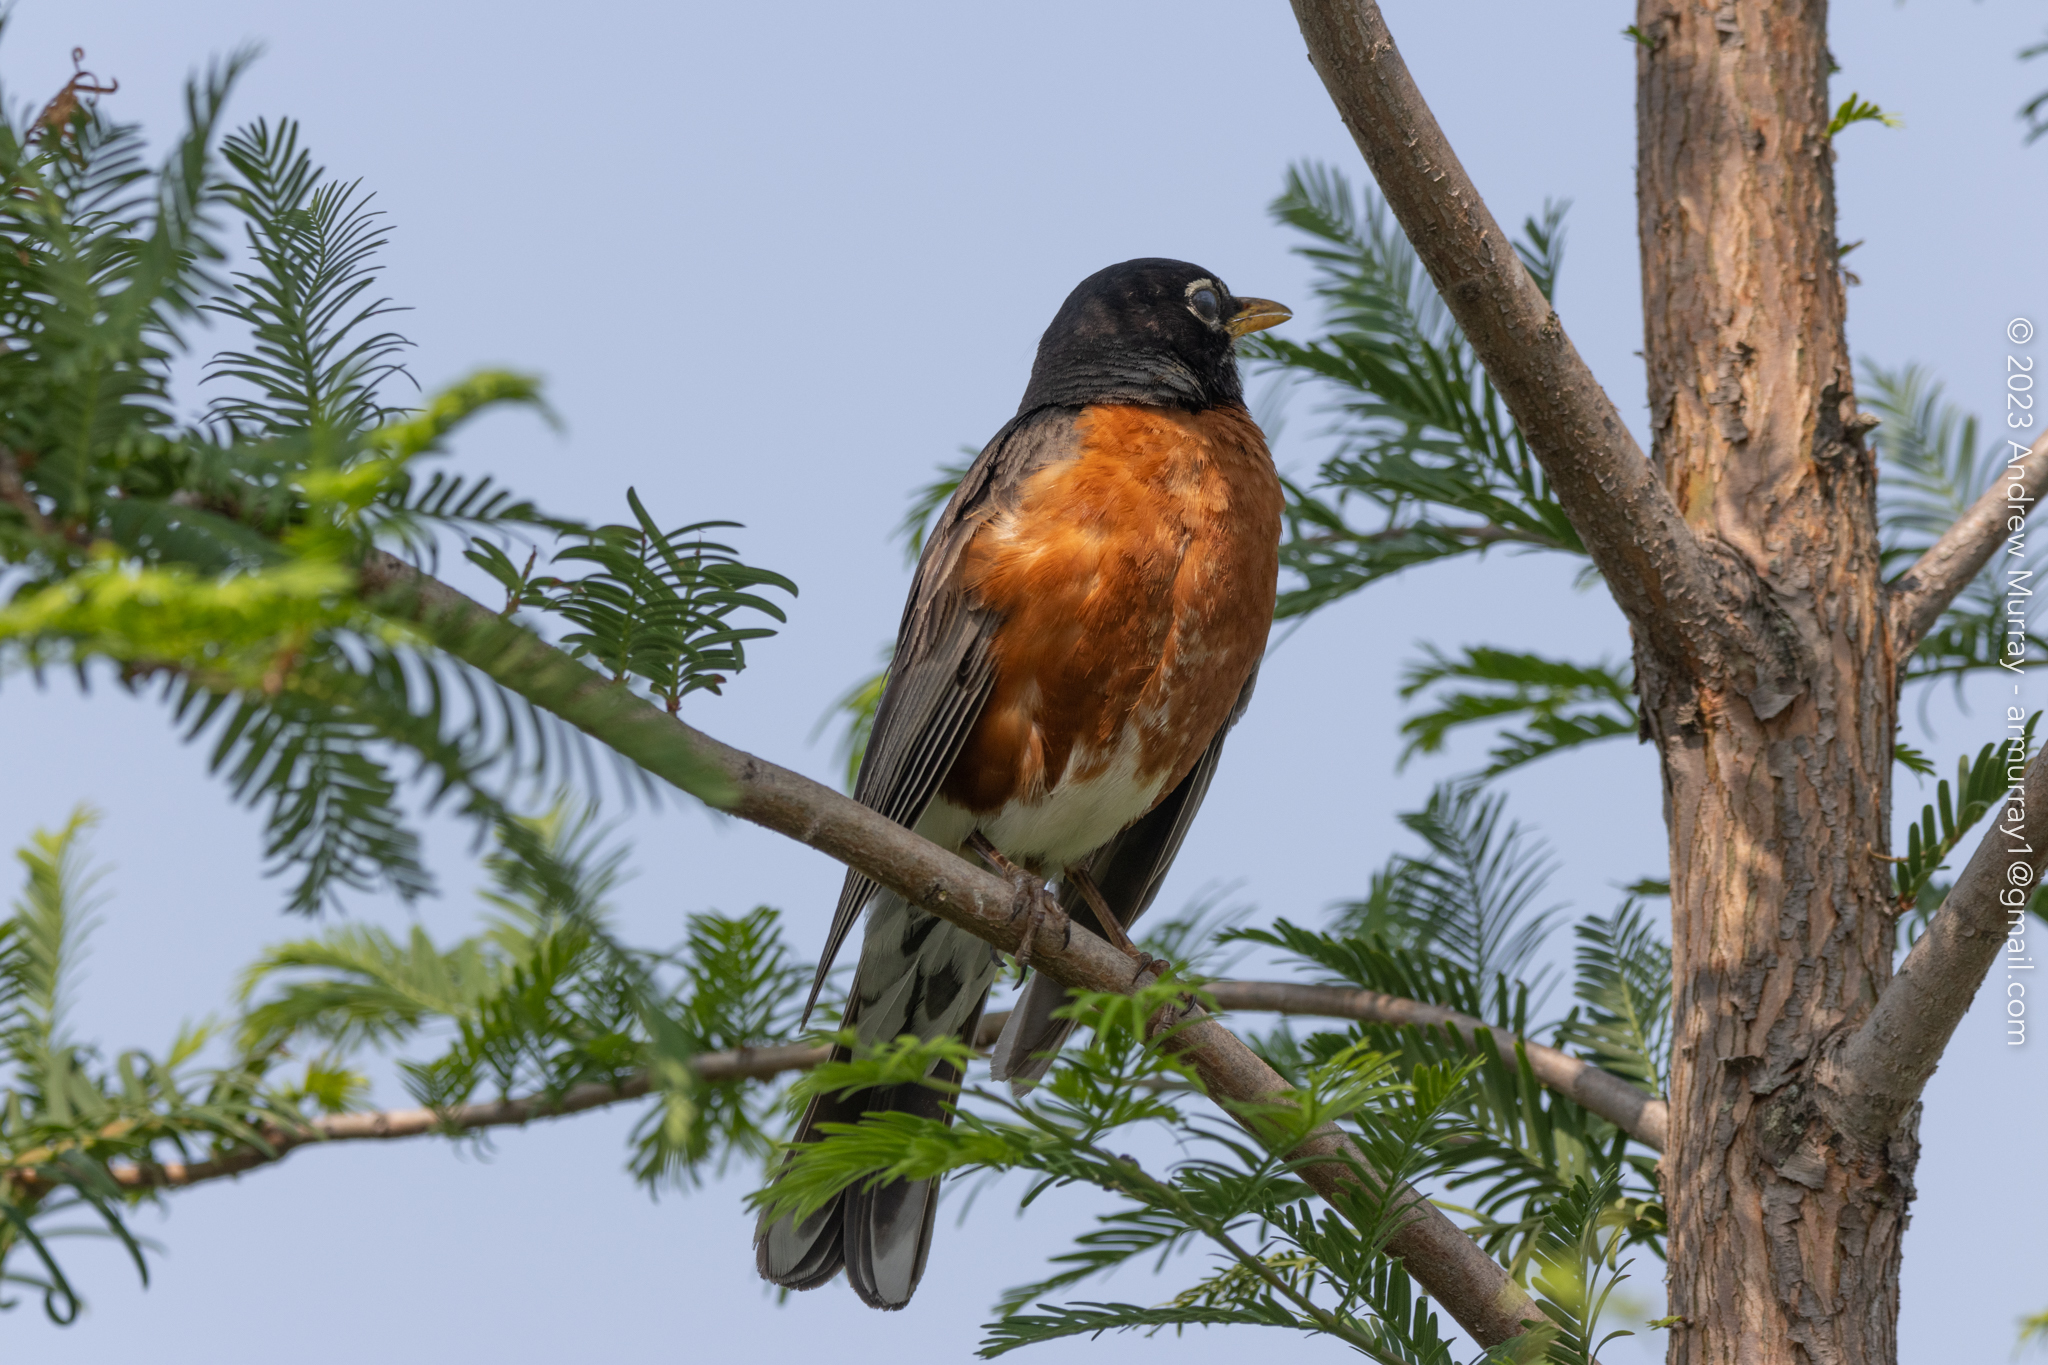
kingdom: Animalia
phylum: Chordata
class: Aves
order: Passeriformes
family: Turdidae
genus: Turdus
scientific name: Turdus migratorius
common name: American robin
